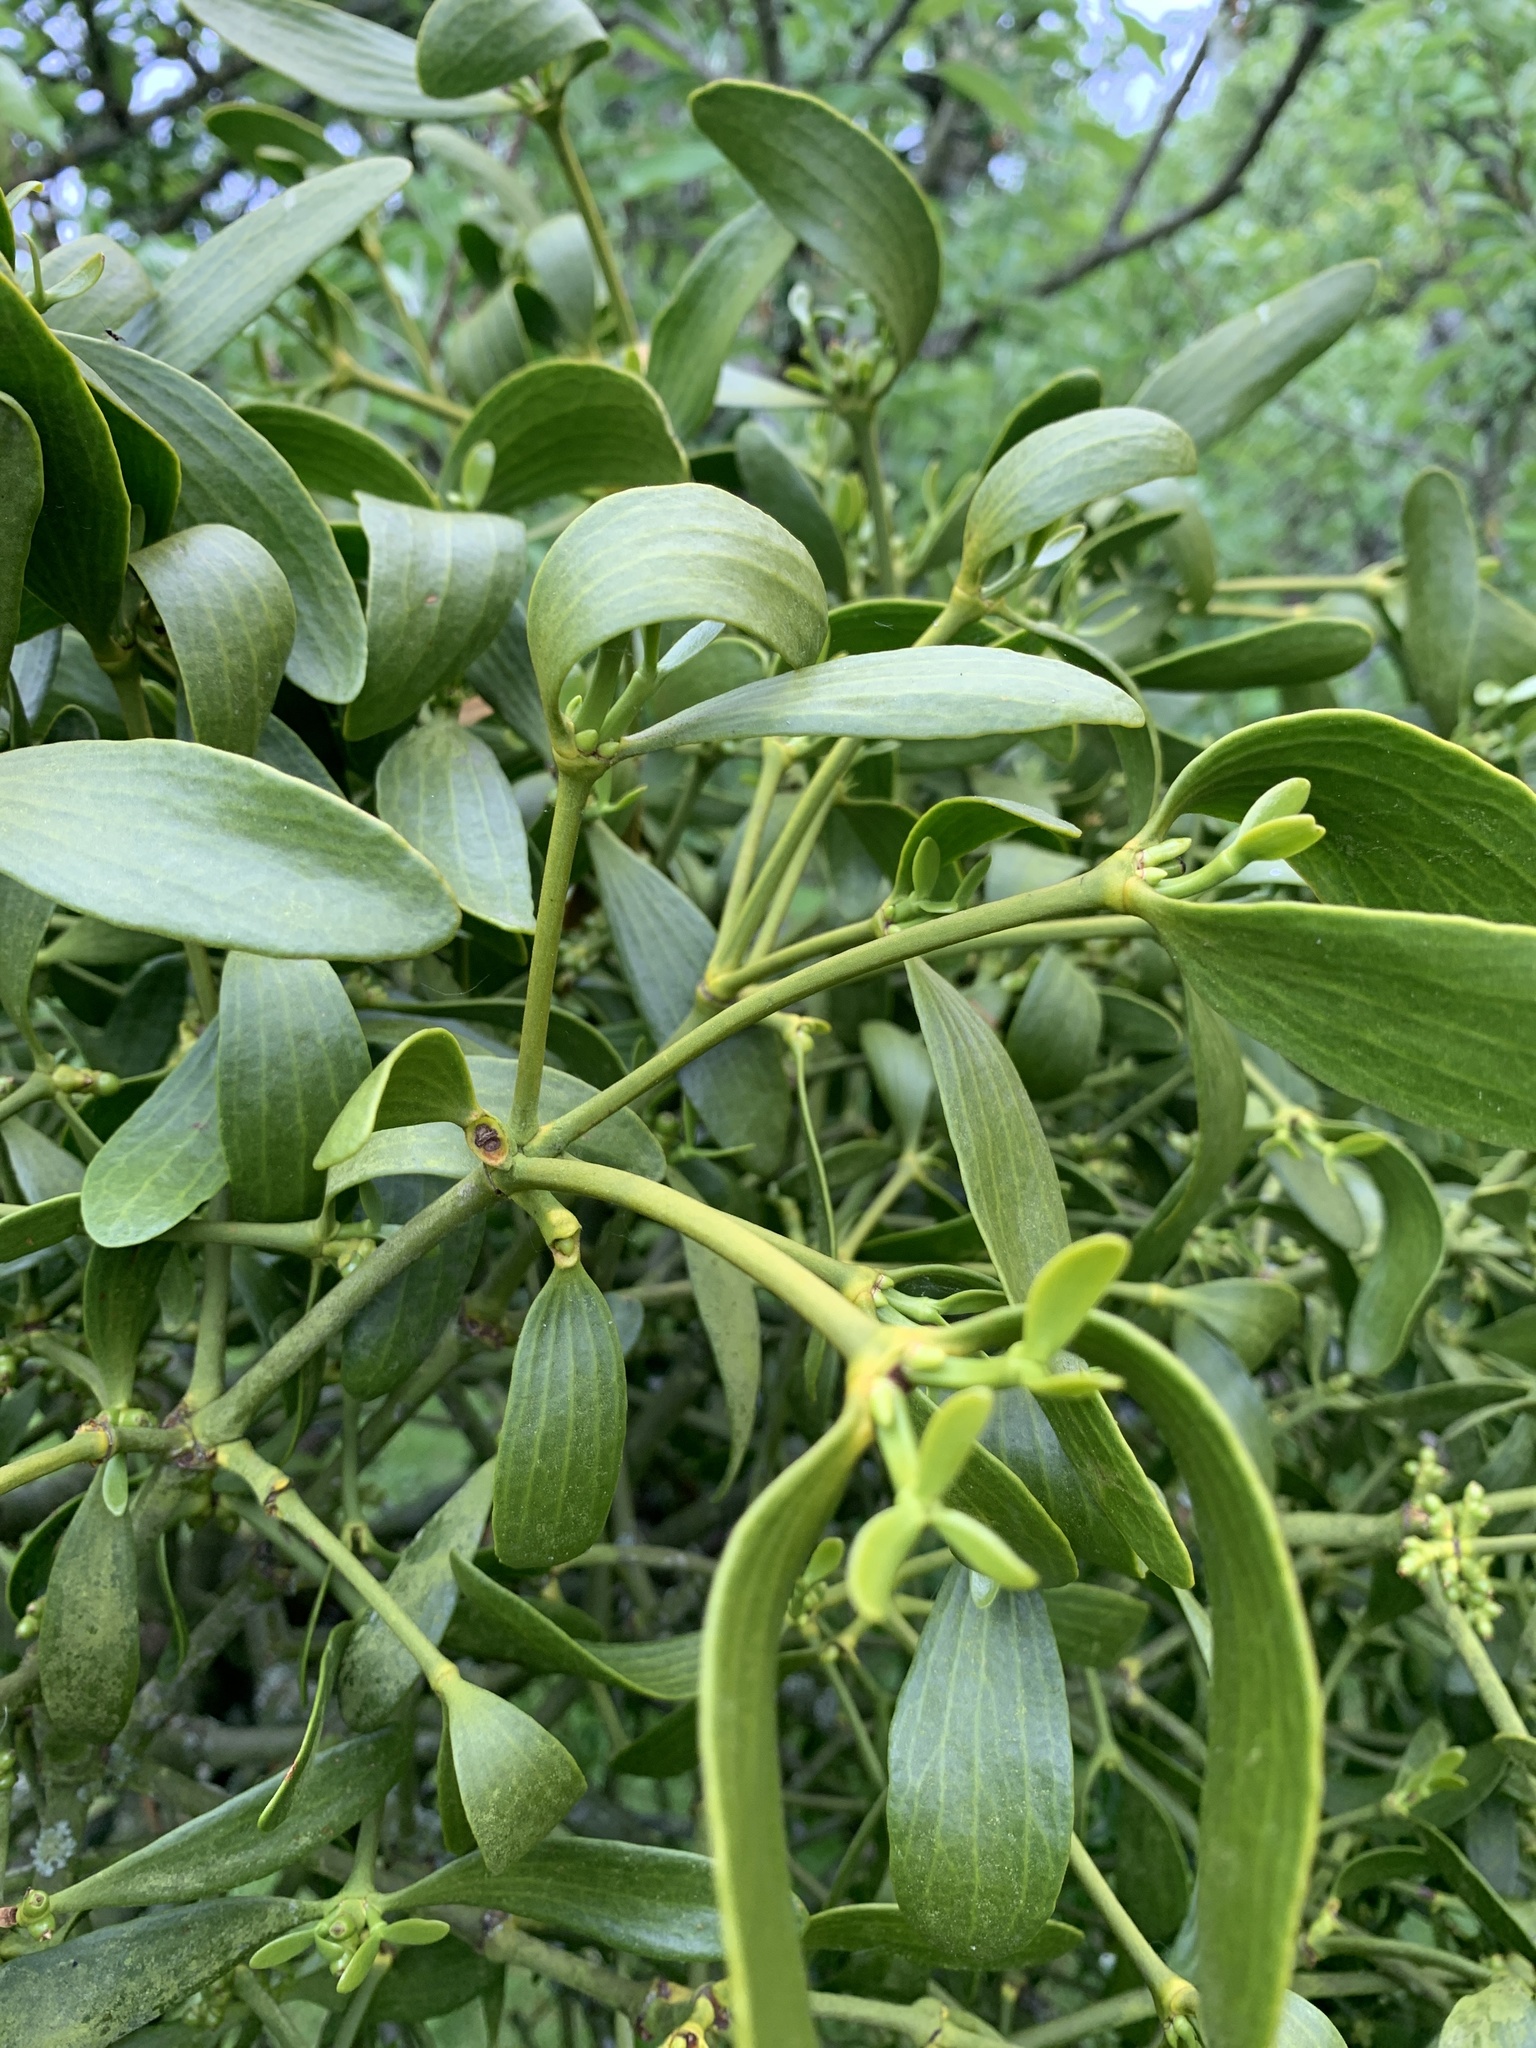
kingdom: Plantae
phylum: Tracheophyta
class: Magnoliopsida
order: Santalales
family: Viscaceae
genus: Viscum
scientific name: Viscum album
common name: Mistletoe
